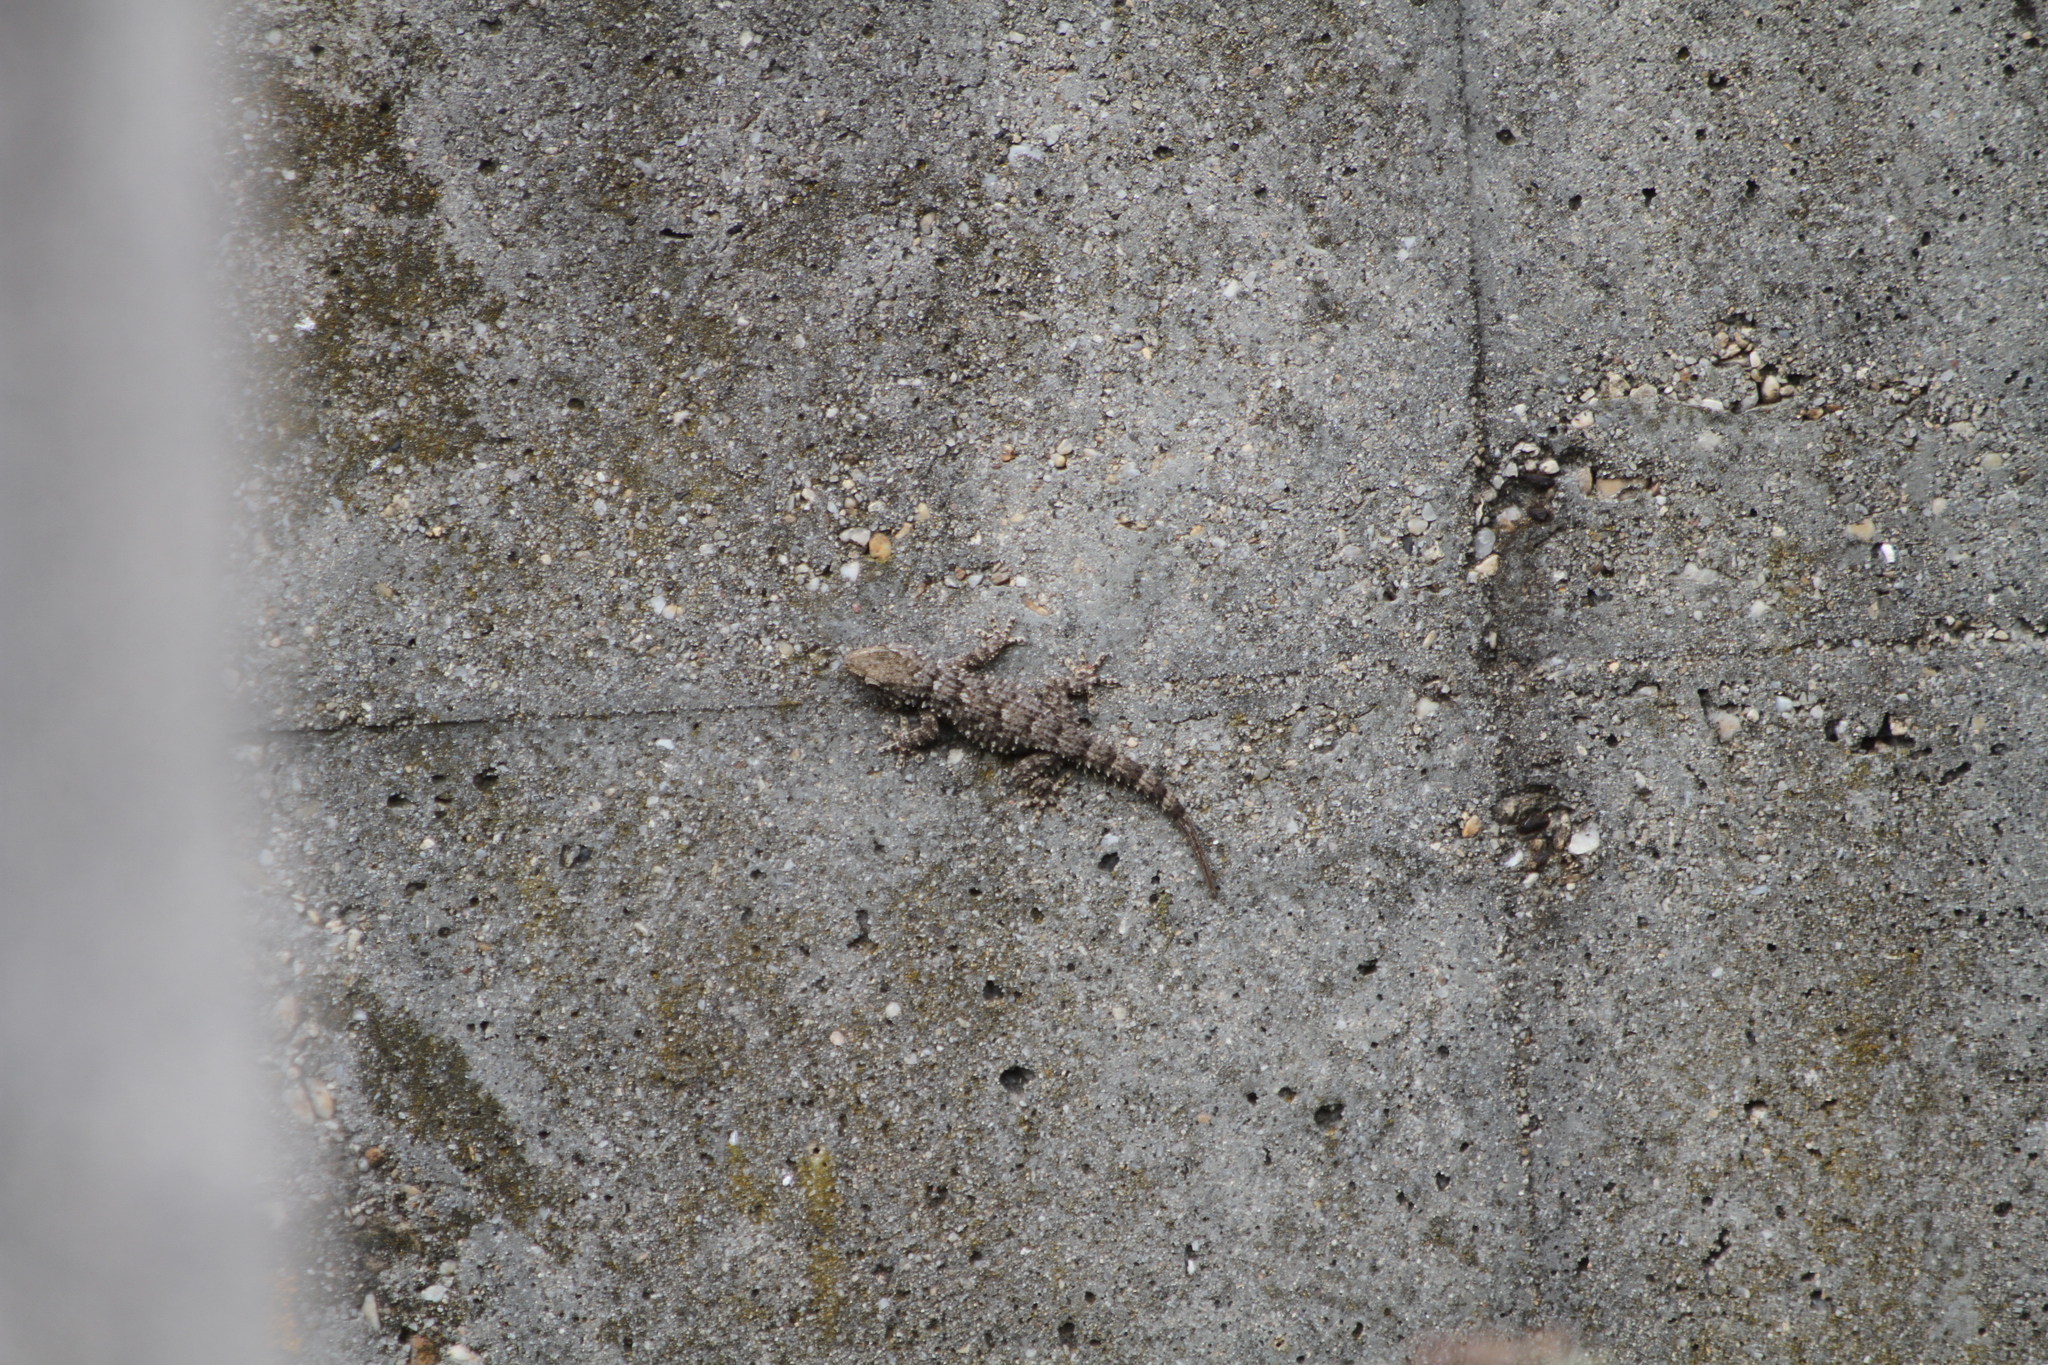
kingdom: Animalia
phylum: Chordata
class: Squamata
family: Phyllodactylidae
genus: Tarentola
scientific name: Tarentola mauritanica
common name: Moorish gecko
